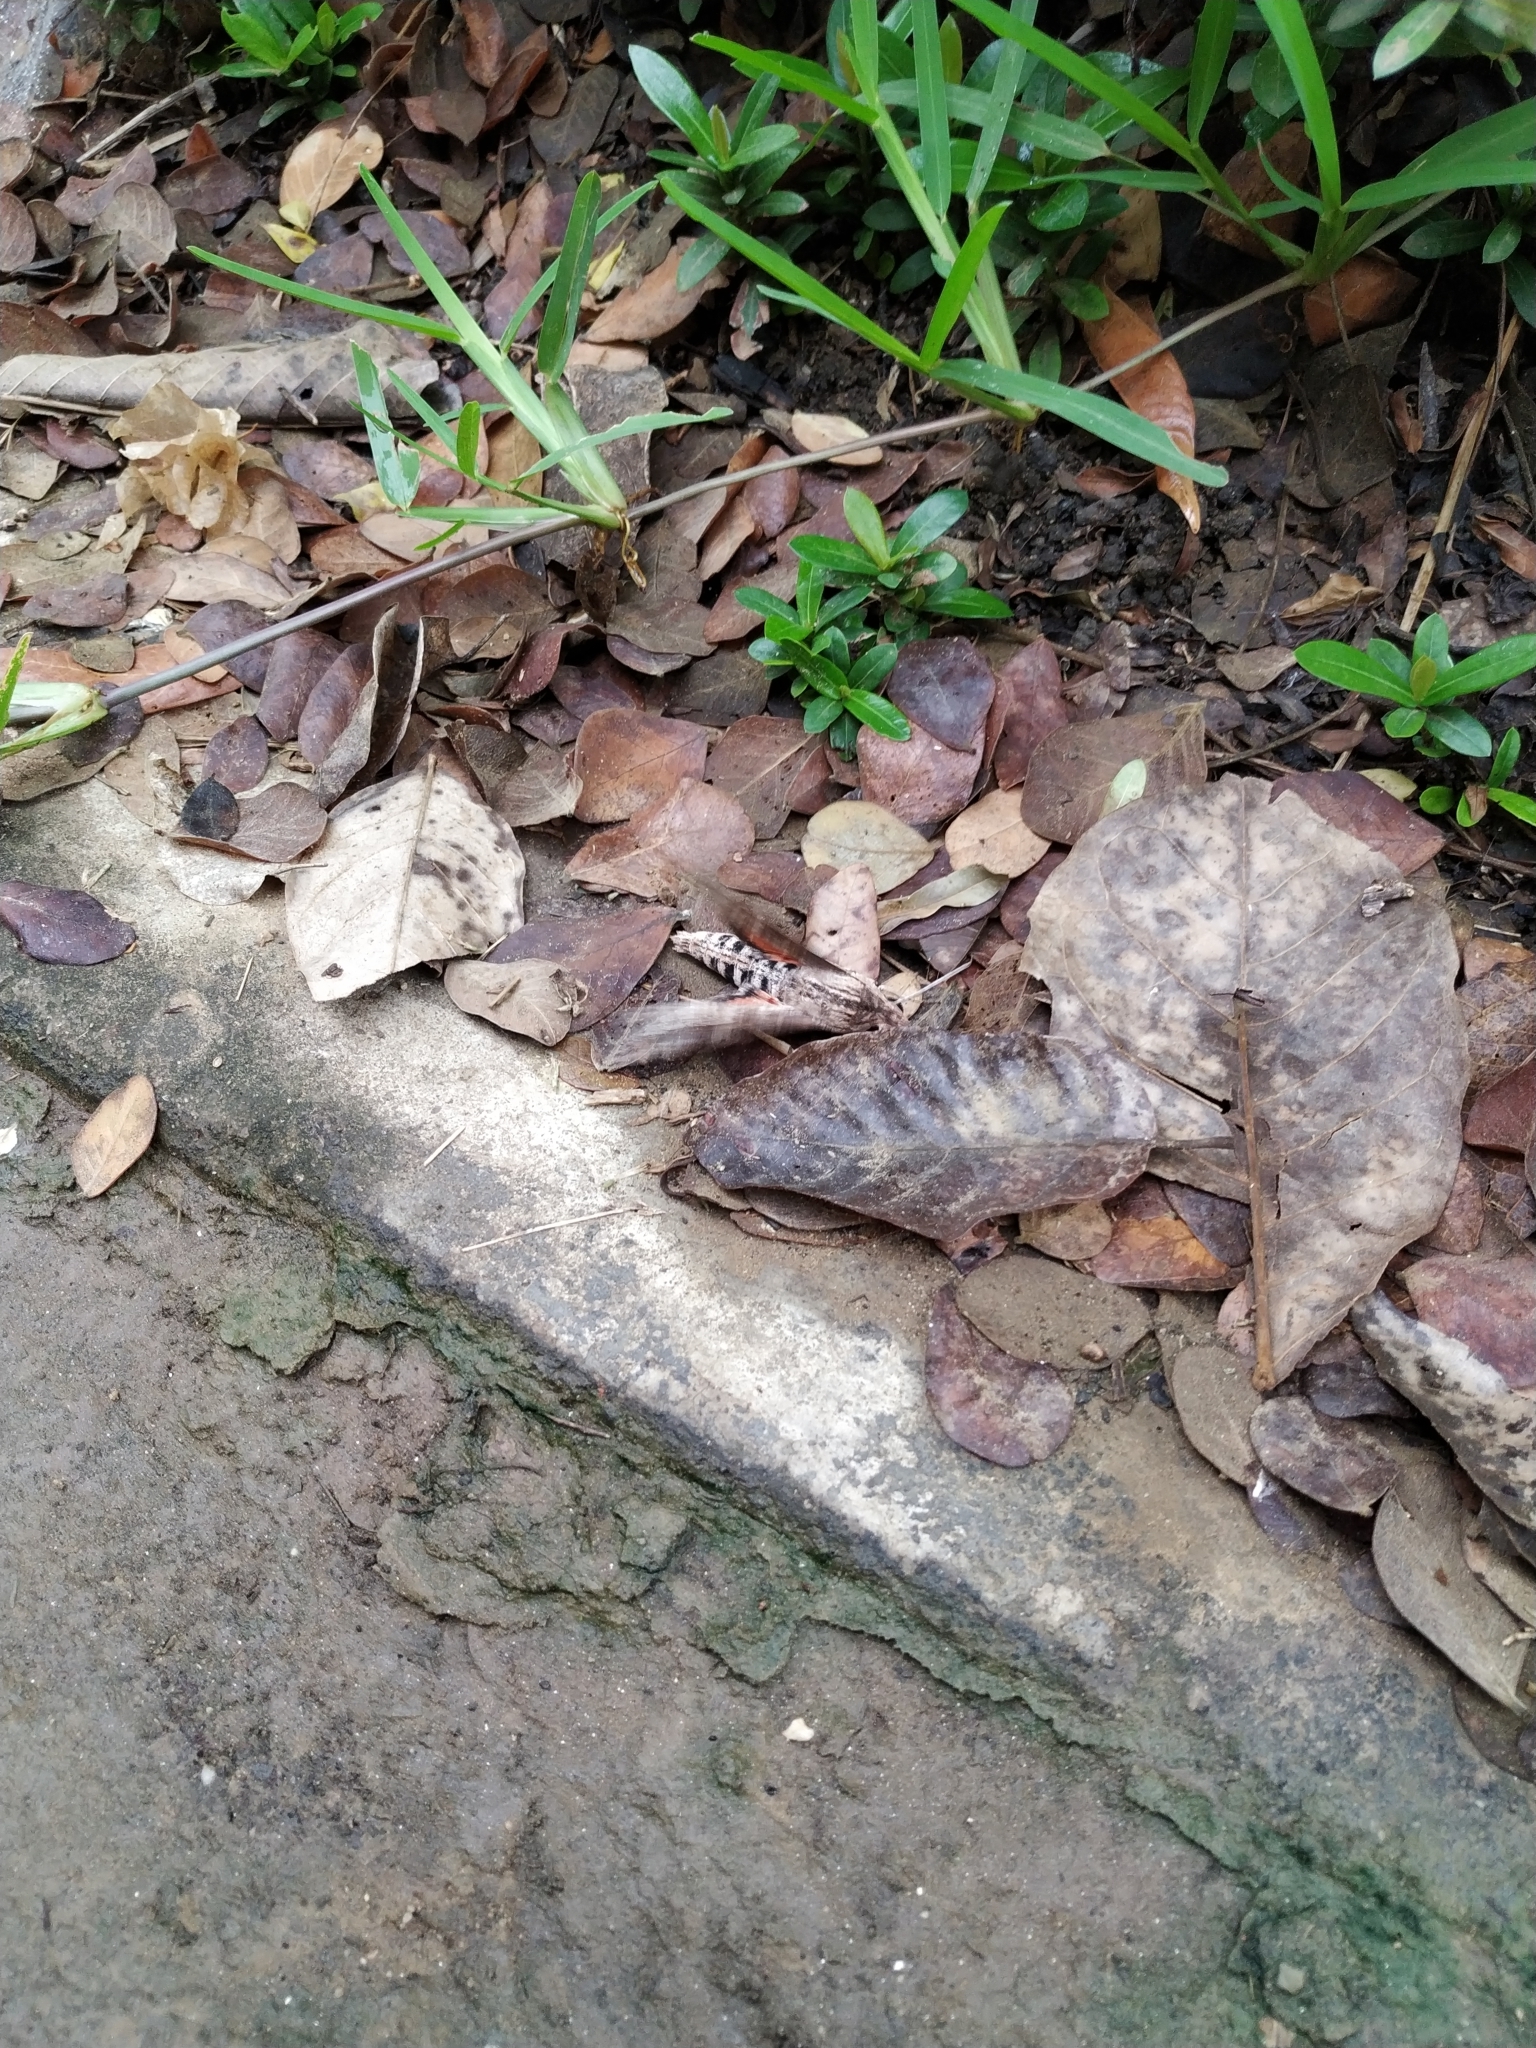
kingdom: Animalia
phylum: Arthropoda
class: Insecta
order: Lepidoptera
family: Sphingidae
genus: Erinnyis
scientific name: Erinnyis ello
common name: Ello sphinx
